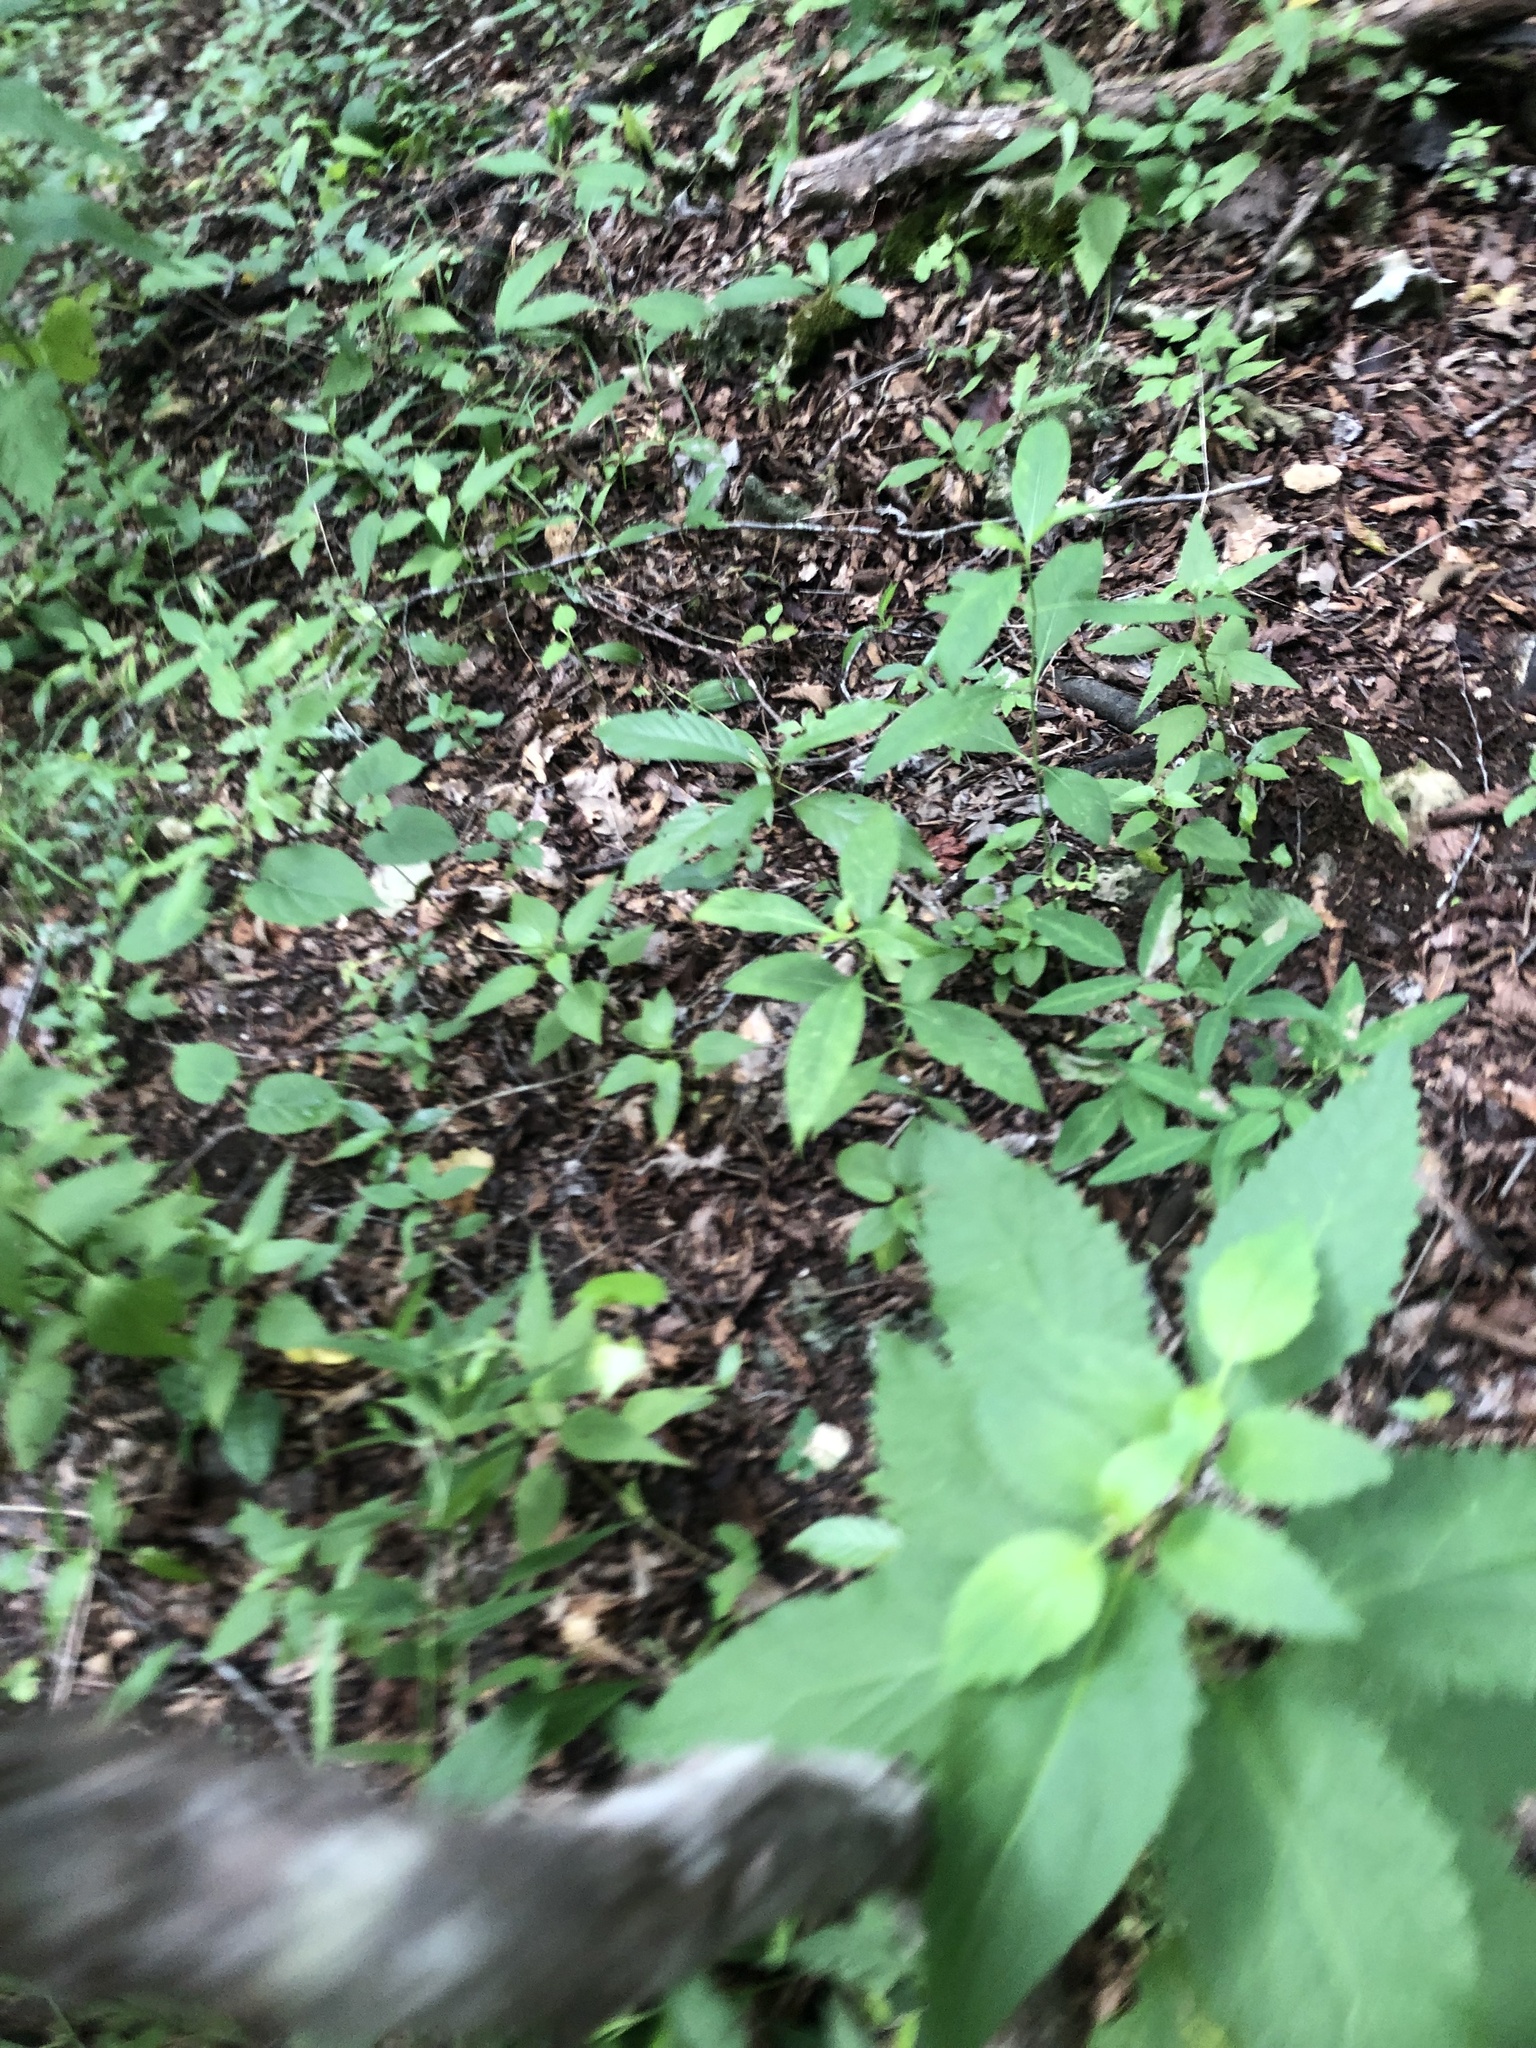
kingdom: Plantae
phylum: Tracheophyta
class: Magnoliopsida
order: Asterales
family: Asteraceae
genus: Melanthera
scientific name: Melanthera nivea
